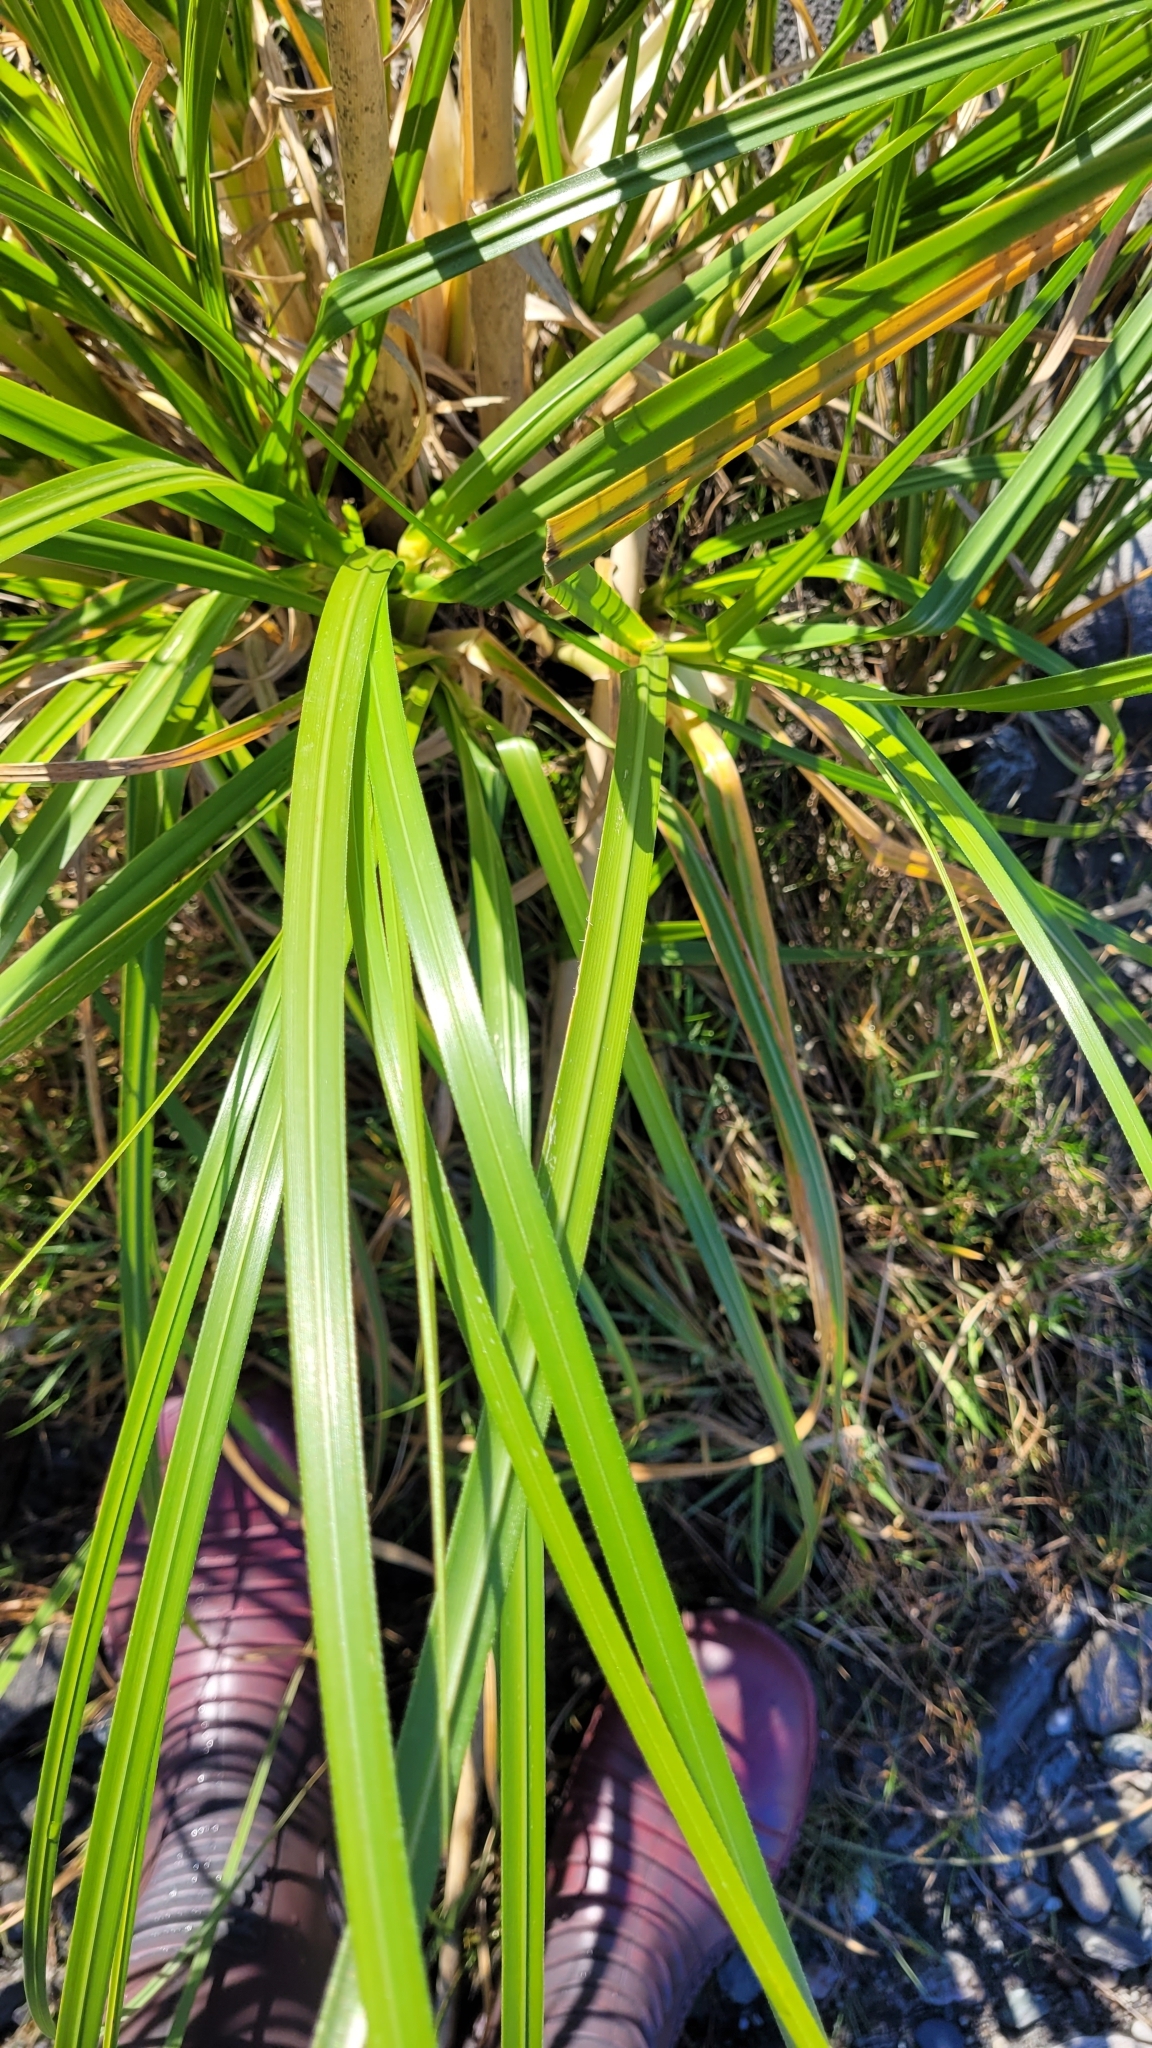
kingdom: Plantae
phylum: Tracheophyta
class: Liliopsida
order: Poales
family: Poaceae
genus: Cortaderia
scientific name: Cortaderia jubata
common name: Purple pampas grass
